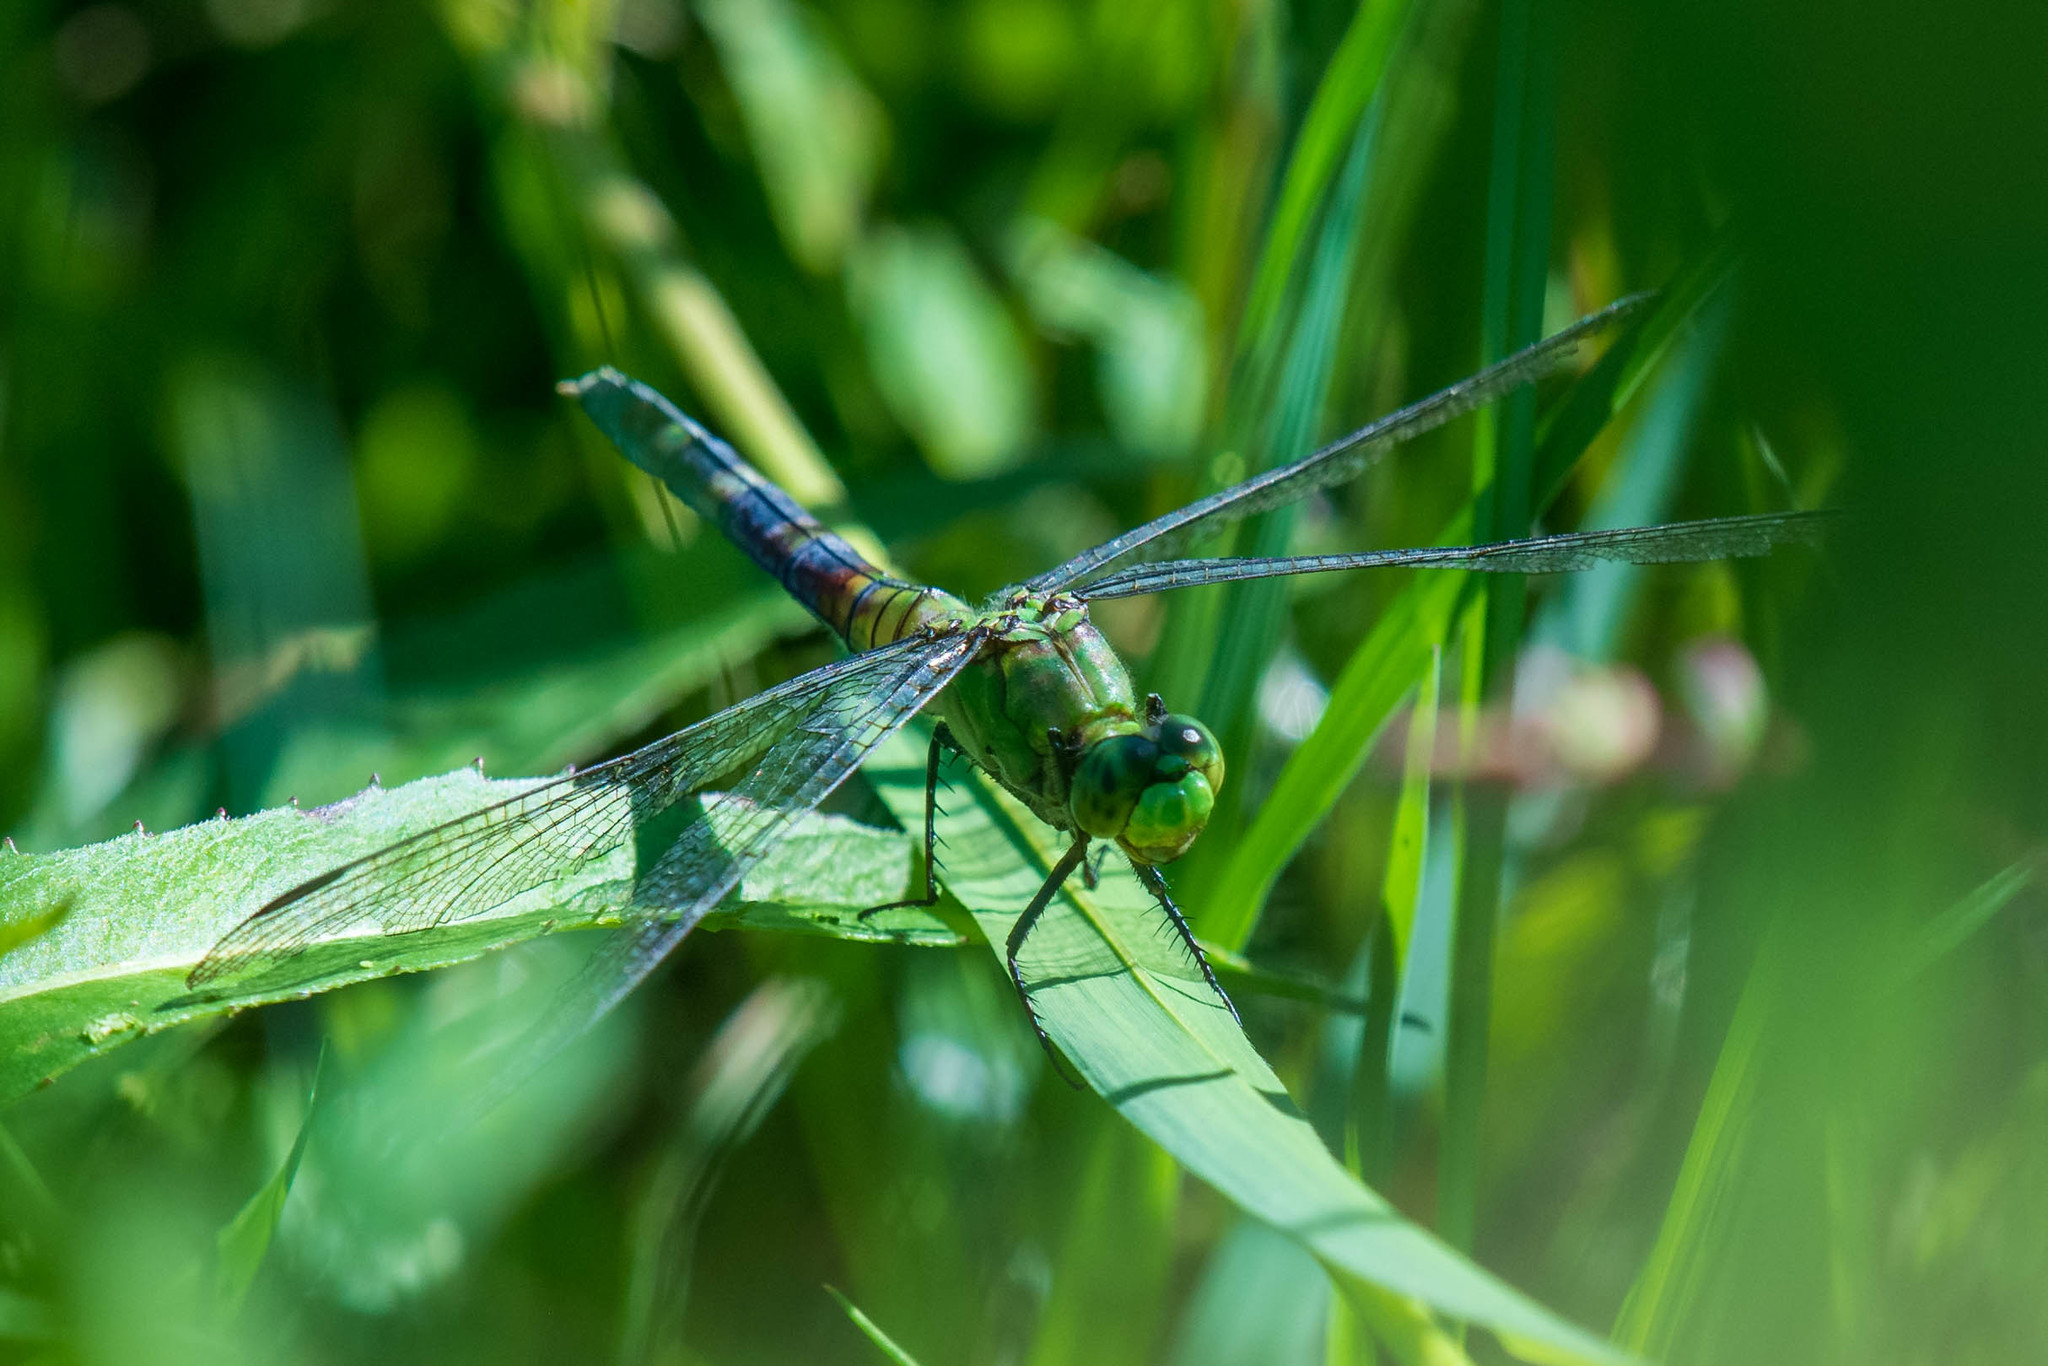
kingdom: Animalia
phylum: Arthropoda
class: Insecta
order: Odonata
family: Libellulidae
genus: Erythemis
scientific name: Erythemis simplicicollis
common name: Eastern pondhawk
